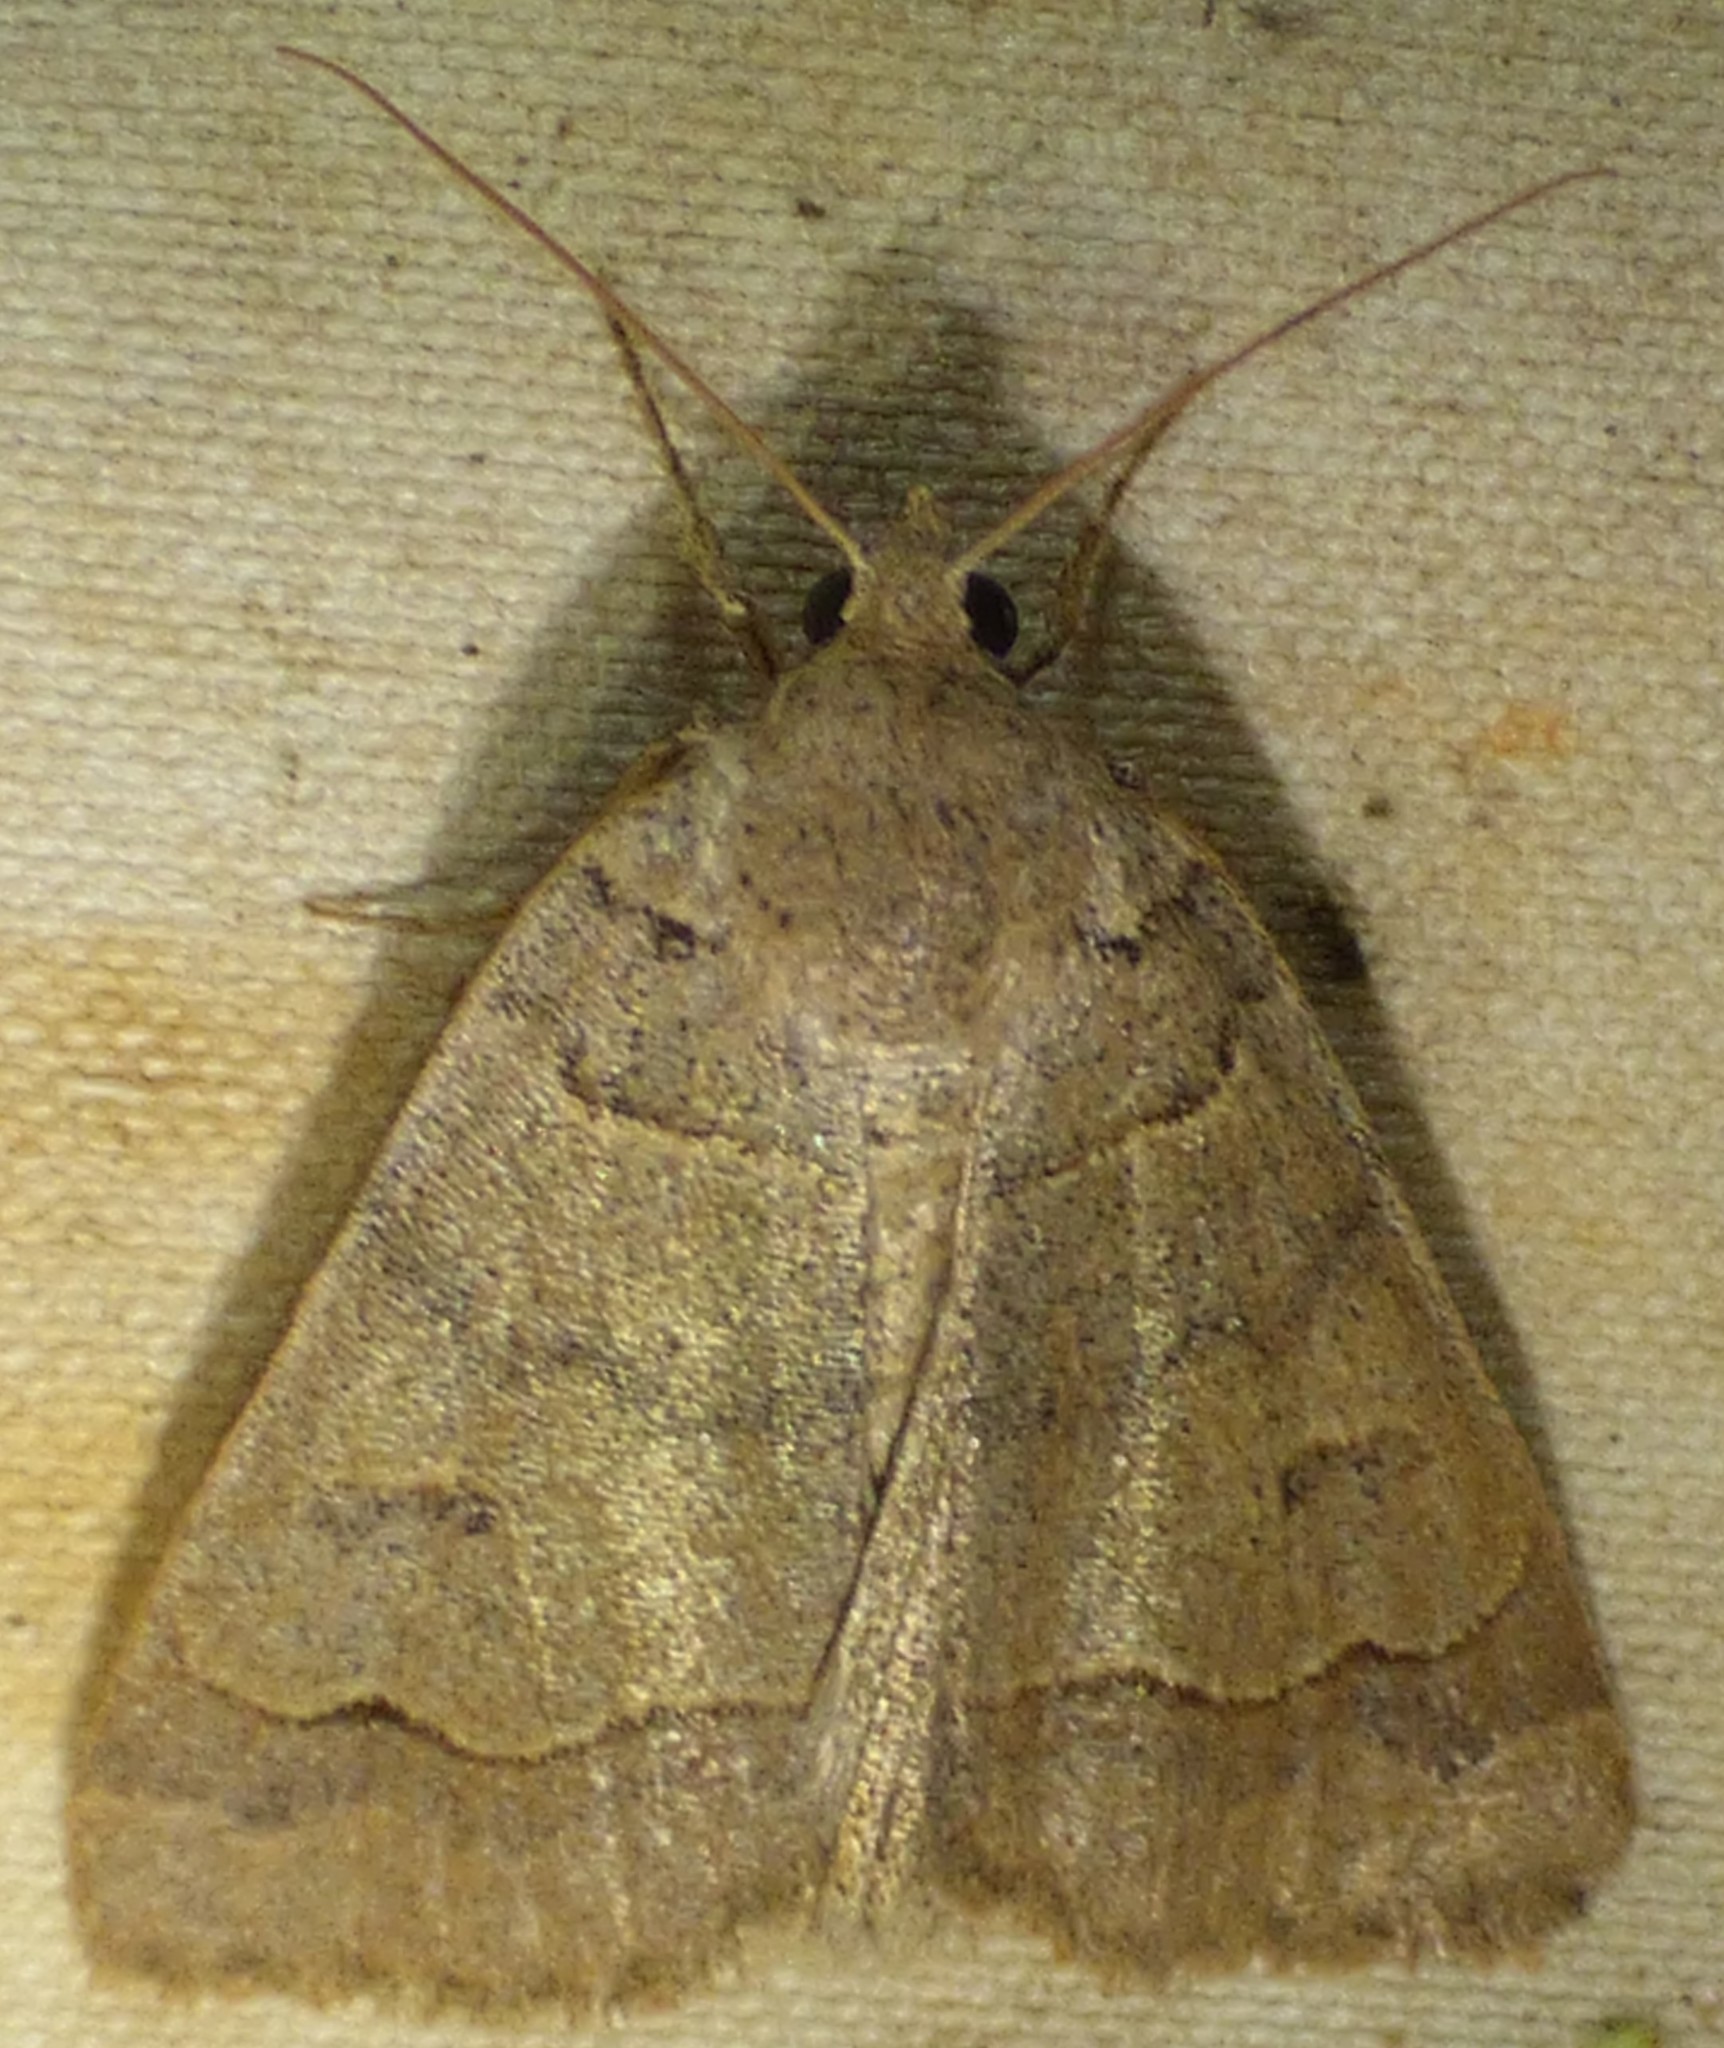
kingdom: Animalia
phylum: Arthropoda
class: Insecta
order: Lepidoptera
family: Erebidae
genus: Phoberia
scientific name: Phoberia atomaris
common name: Common oak moth
